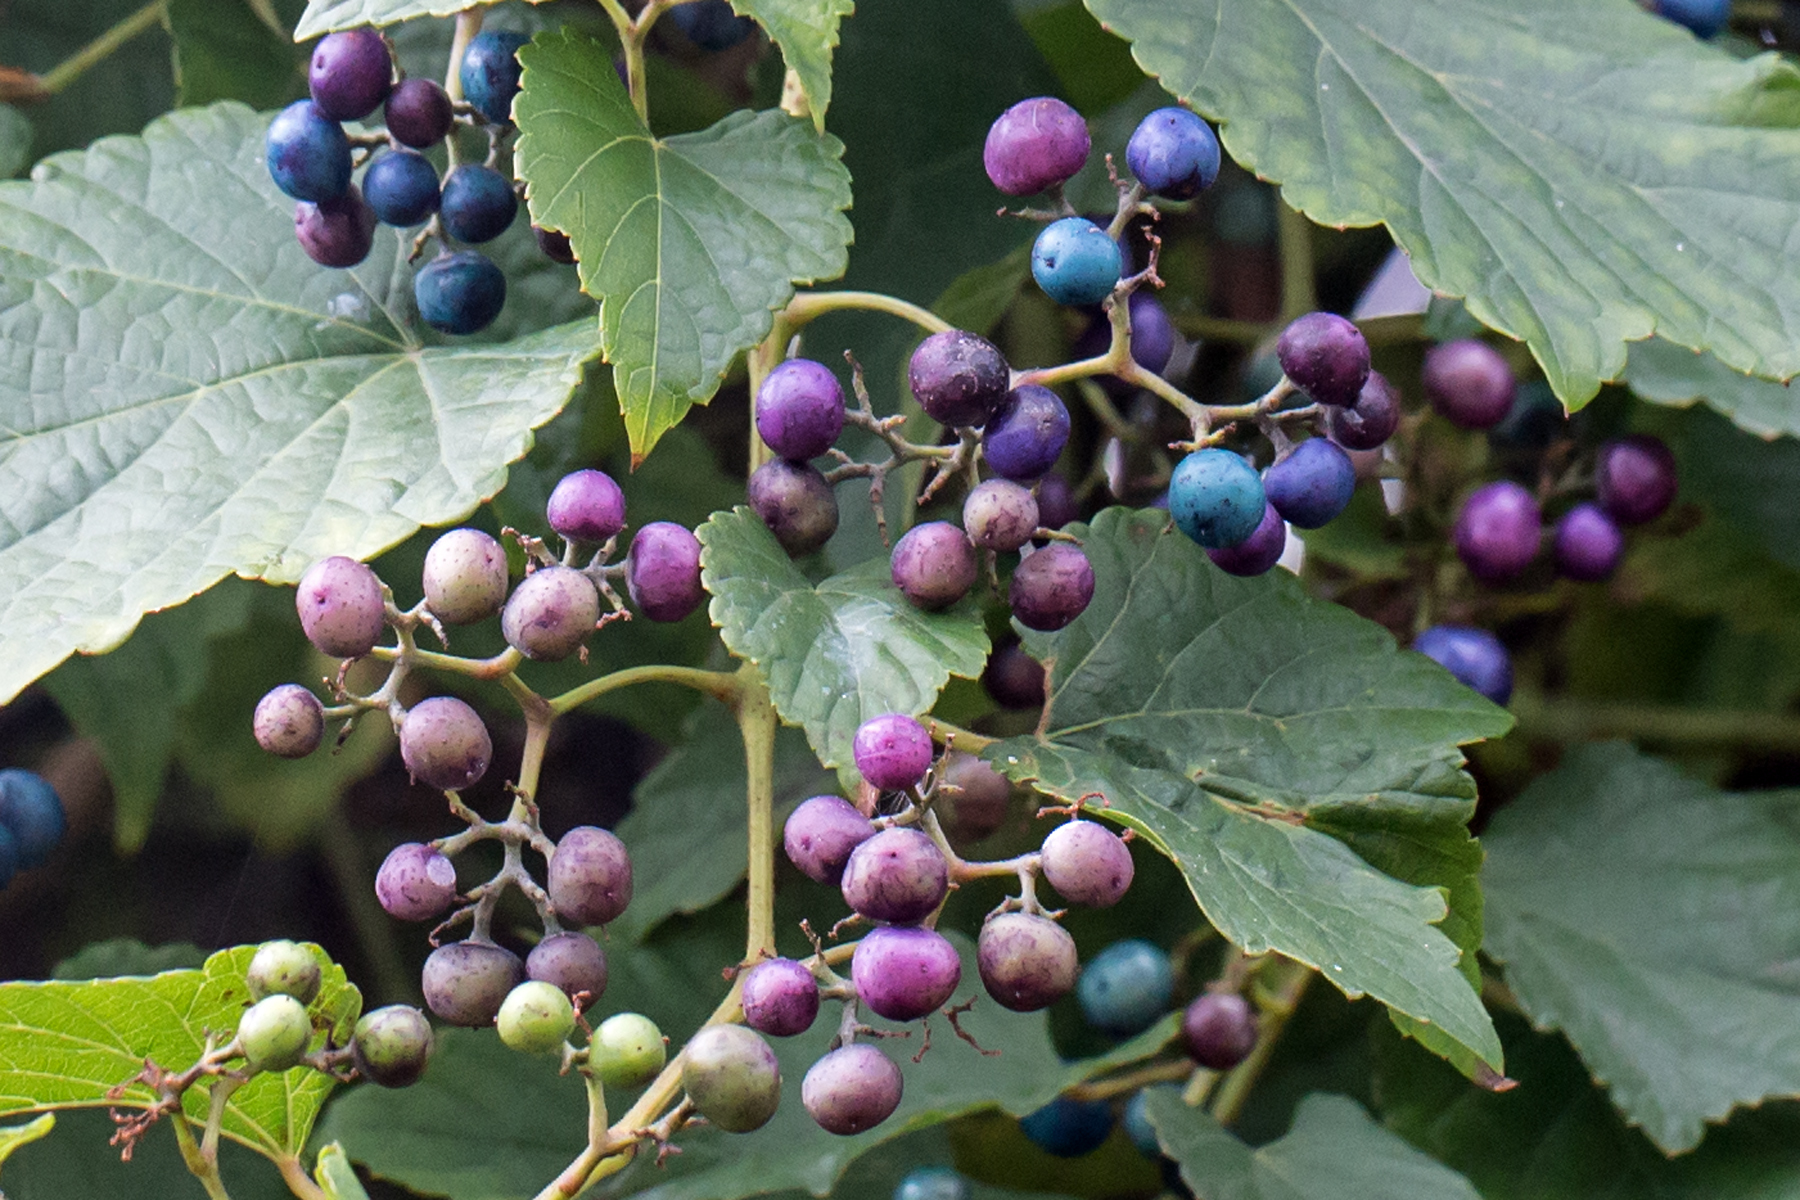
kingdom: Plantae
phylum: Tracheophyta
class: Magnoliopsida
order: Vitales
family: Vitaceae
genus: Ampelopsis
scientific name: Ampelopsis glandulosa
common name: Amur peppervine
